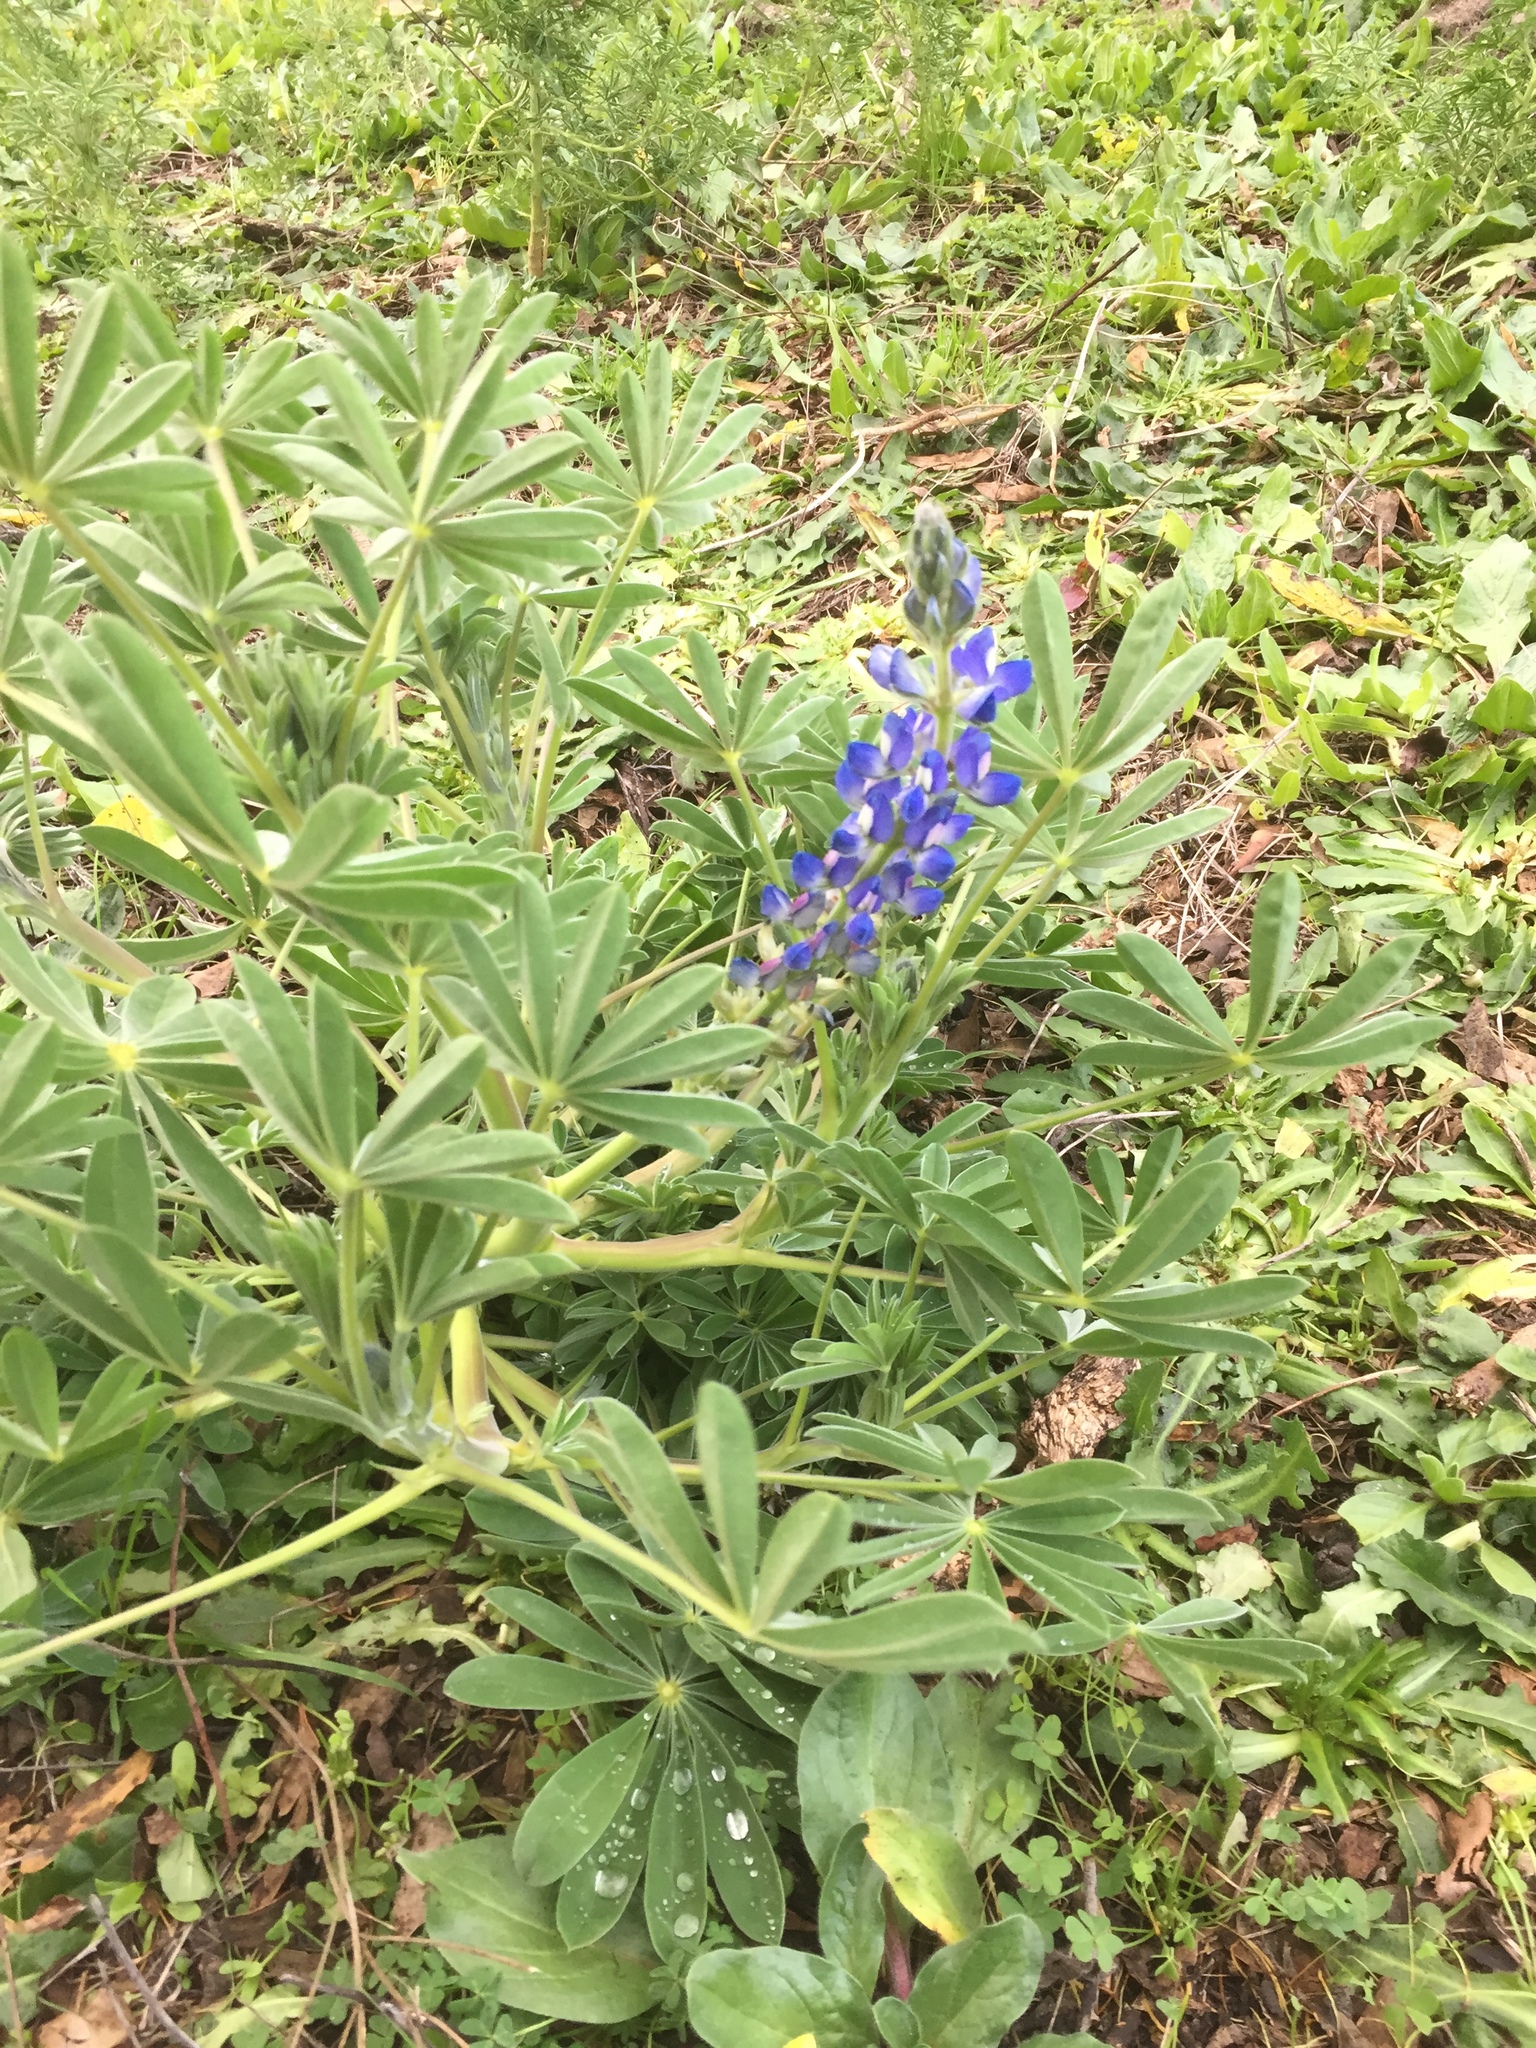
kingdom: Plantae
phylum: Tracheophyta
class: Magnoliopsida
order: Fabales
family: Fabaceae
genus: Lupinus
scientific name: Lupinus cosentinii
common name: Hairy blue lupin
